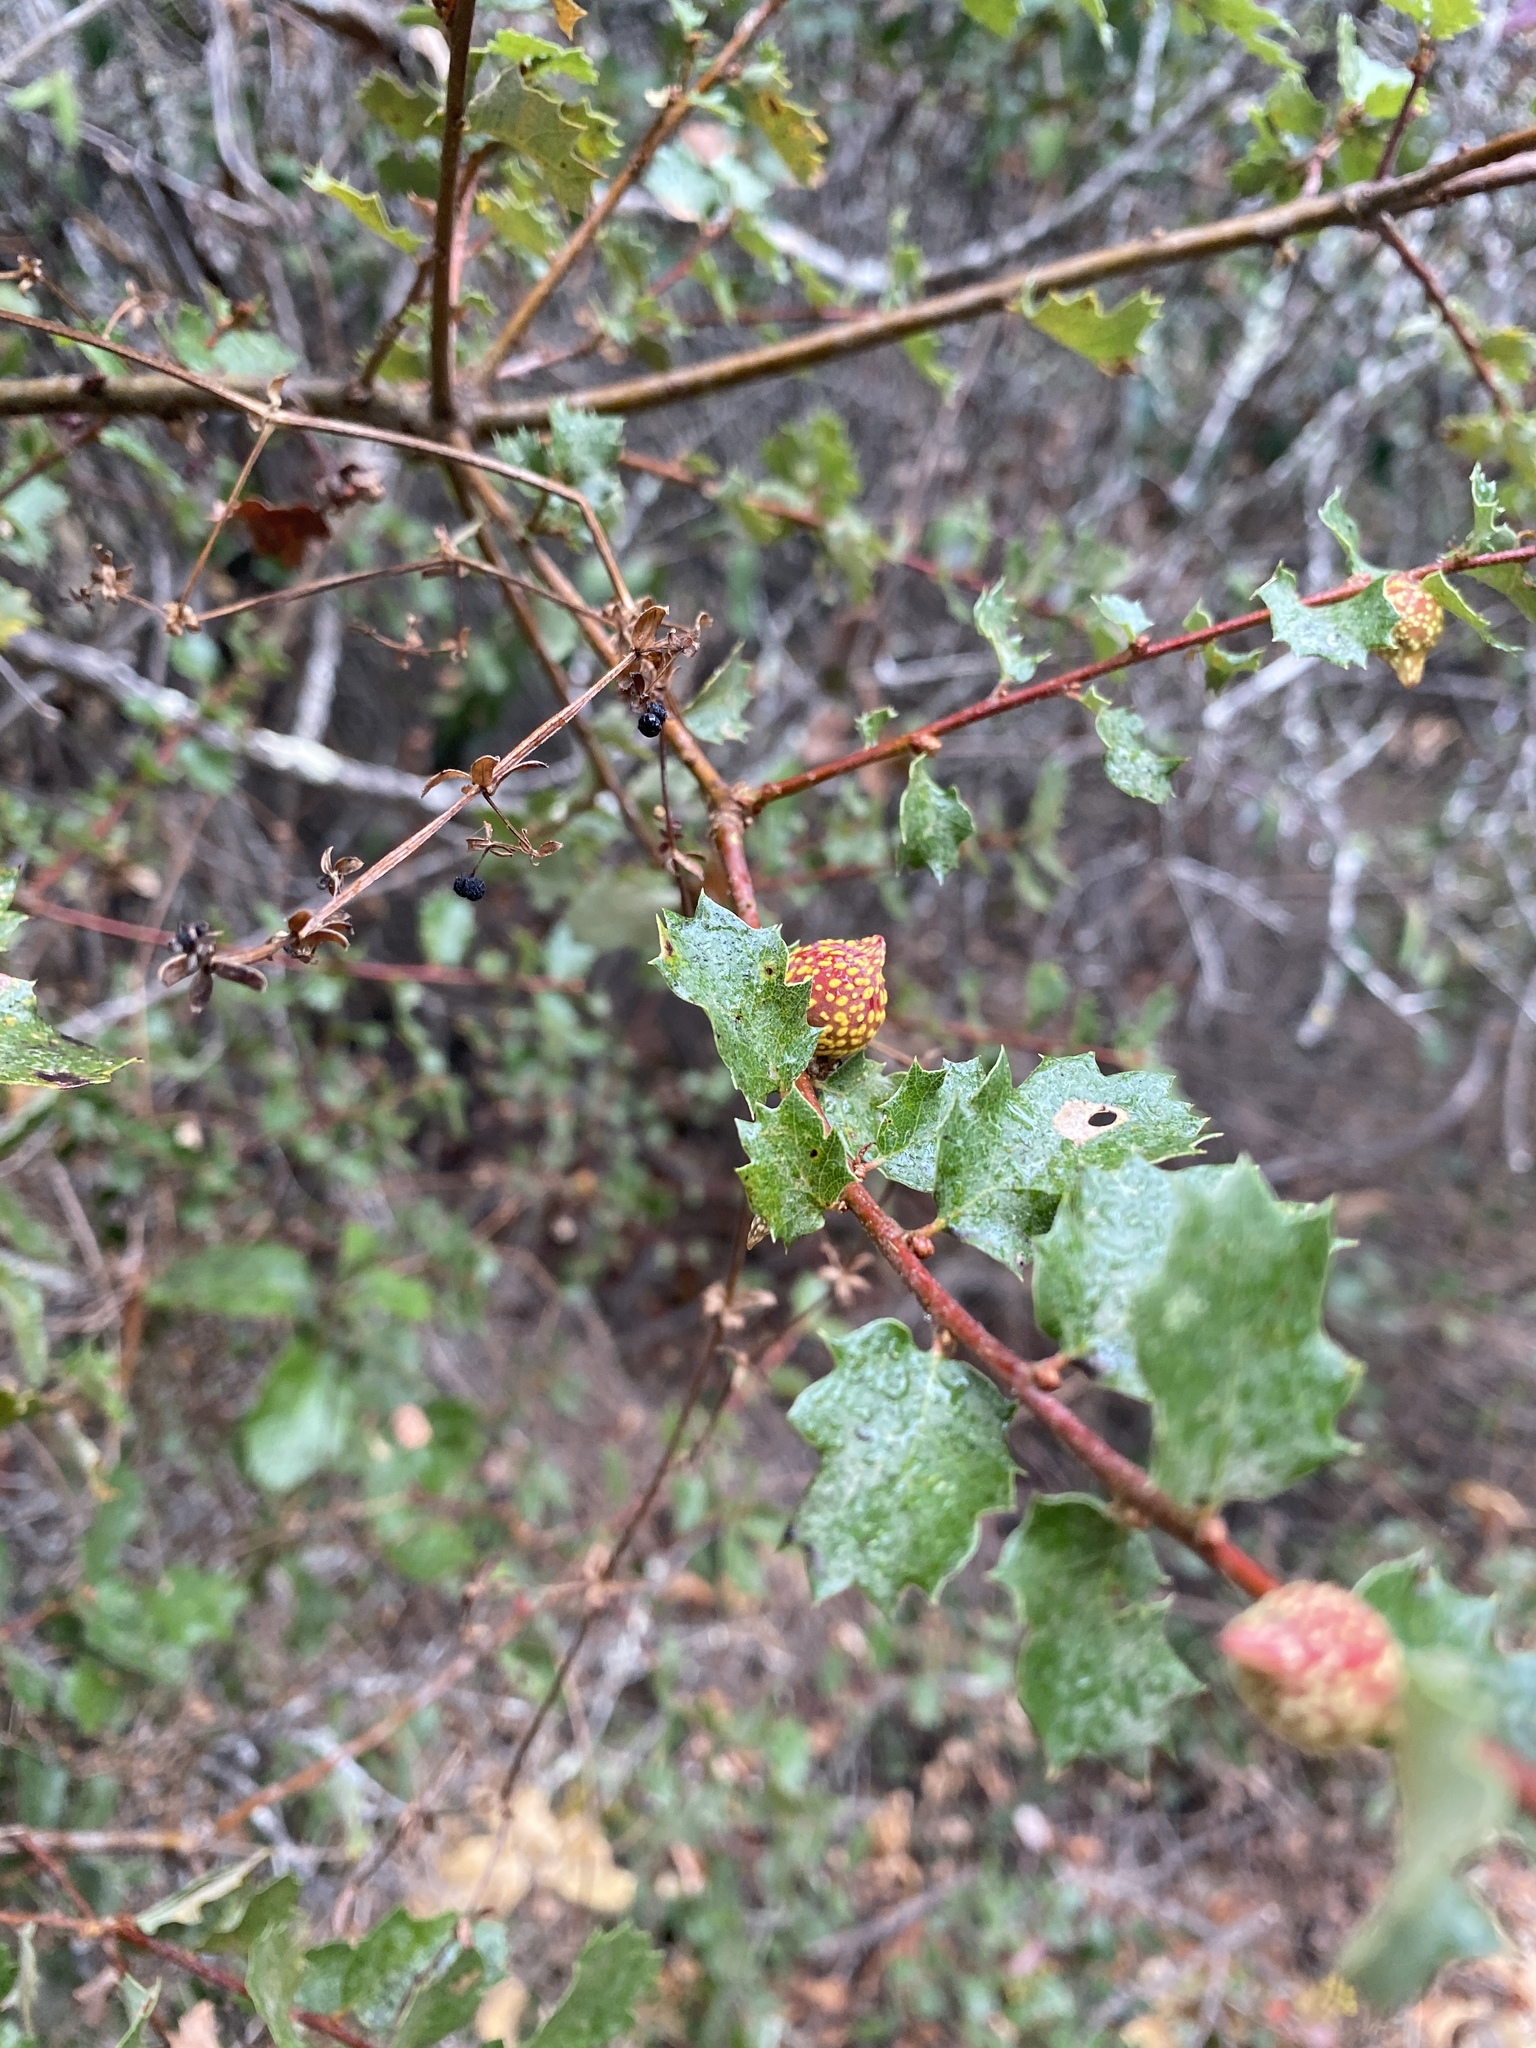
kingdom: Animalia
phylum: Arthropoda
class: Insecta
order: Hymenoptera
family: Cynipidae
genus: Burnettweldia
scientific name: Burnettweldia
